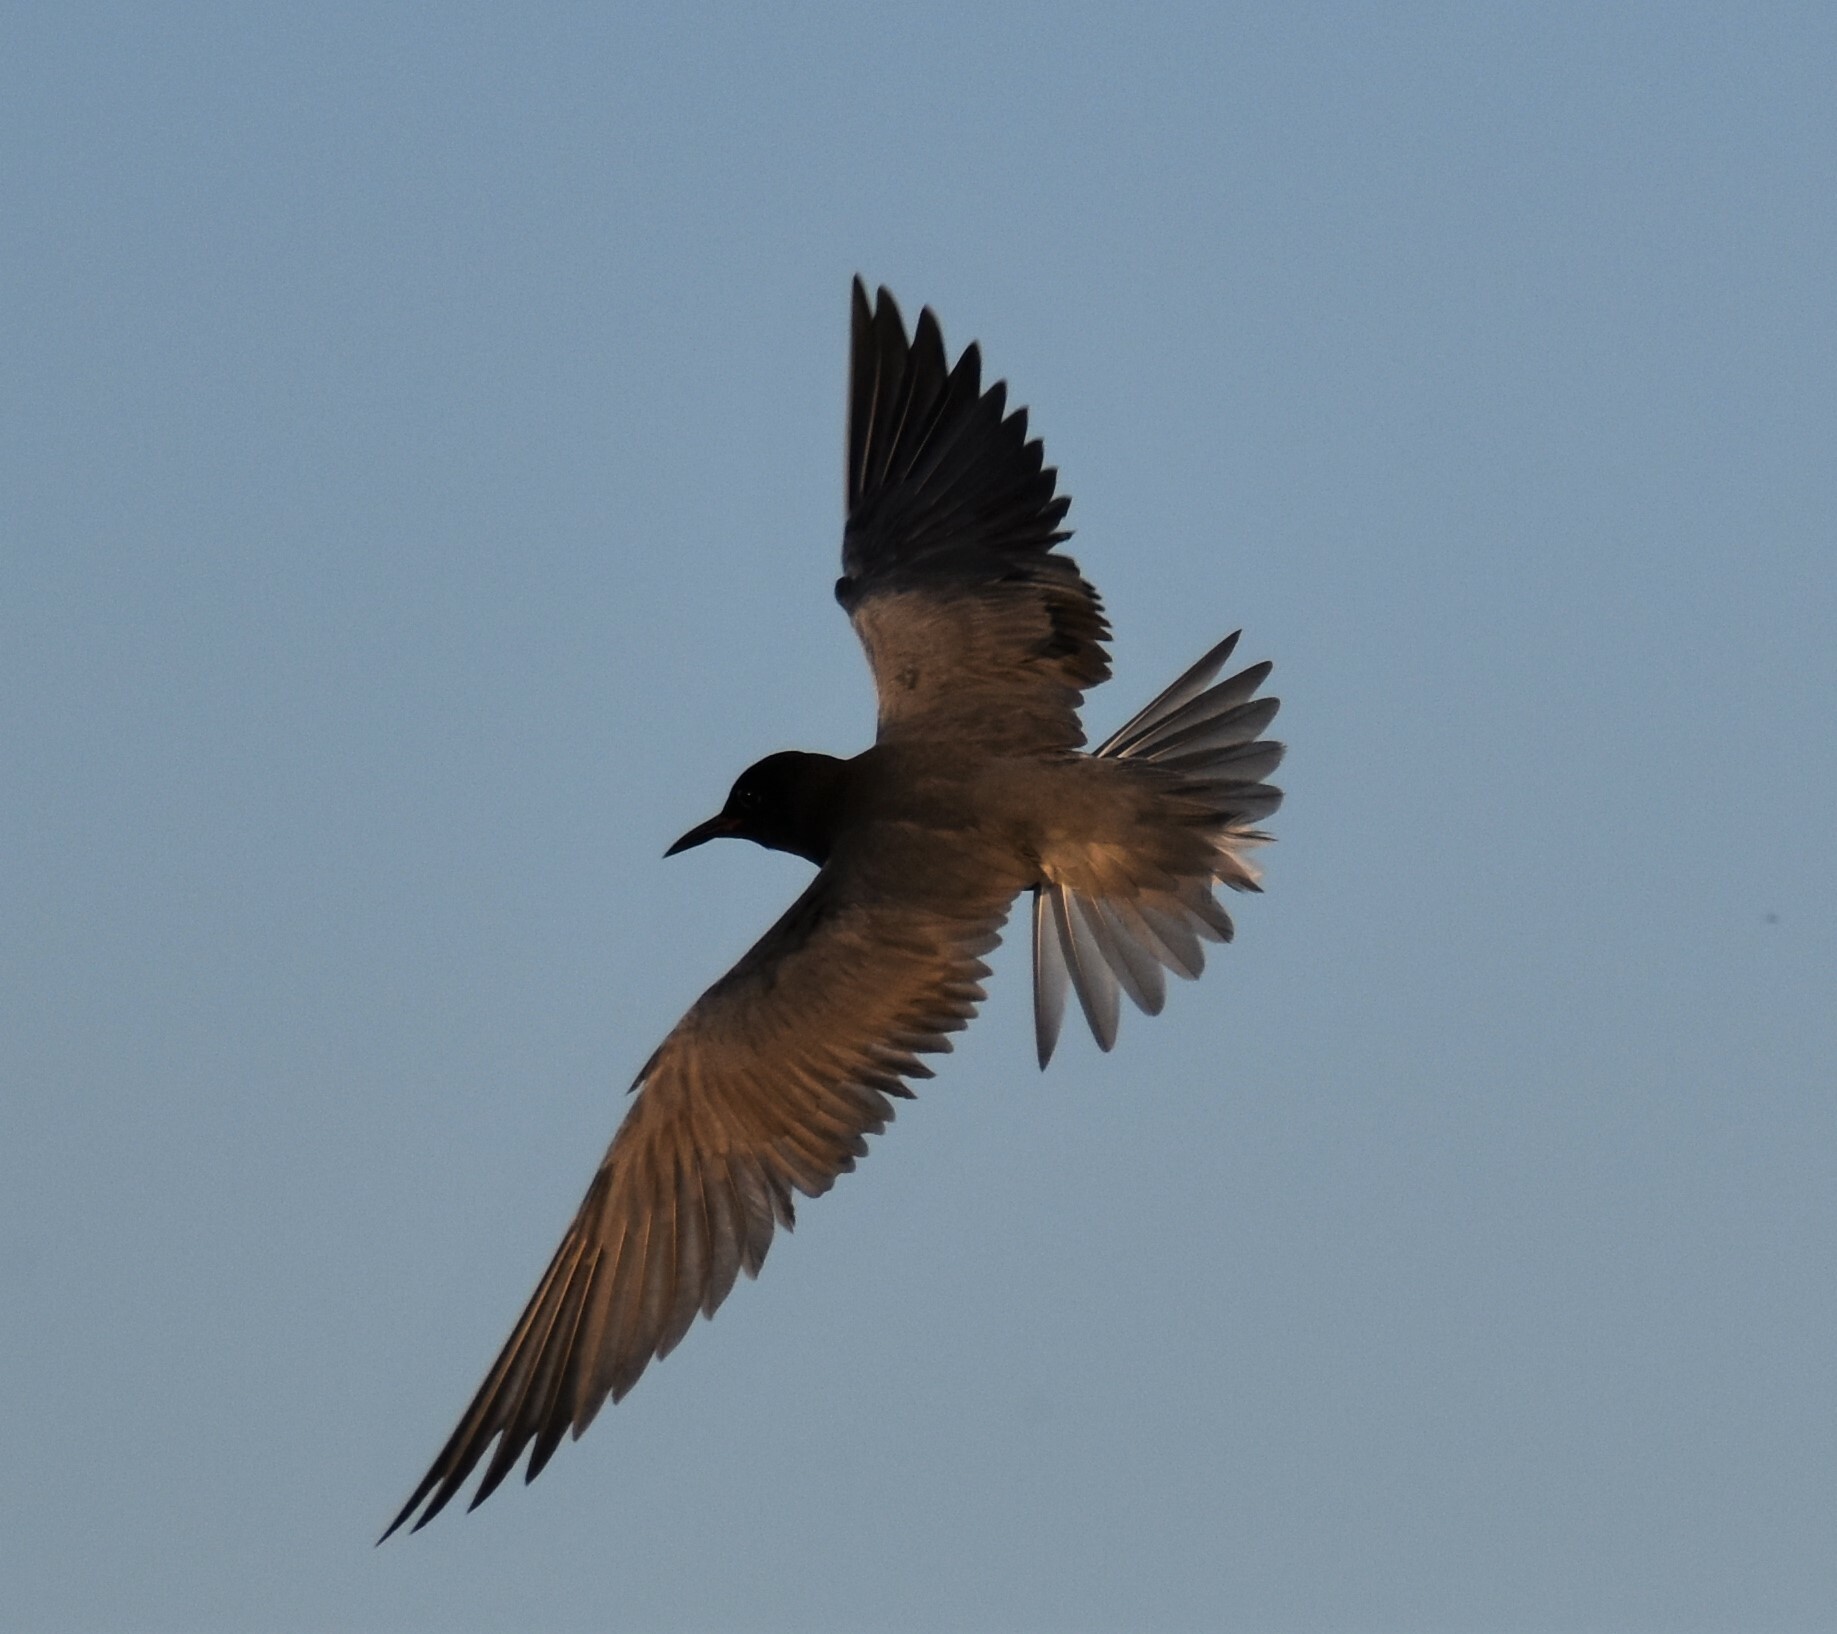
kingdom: Animalia
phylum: Chordata
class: Aves
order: Charadriiformes
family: Laridae
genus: Chlidonias
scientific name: Chlidonias niger
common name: Black tern
